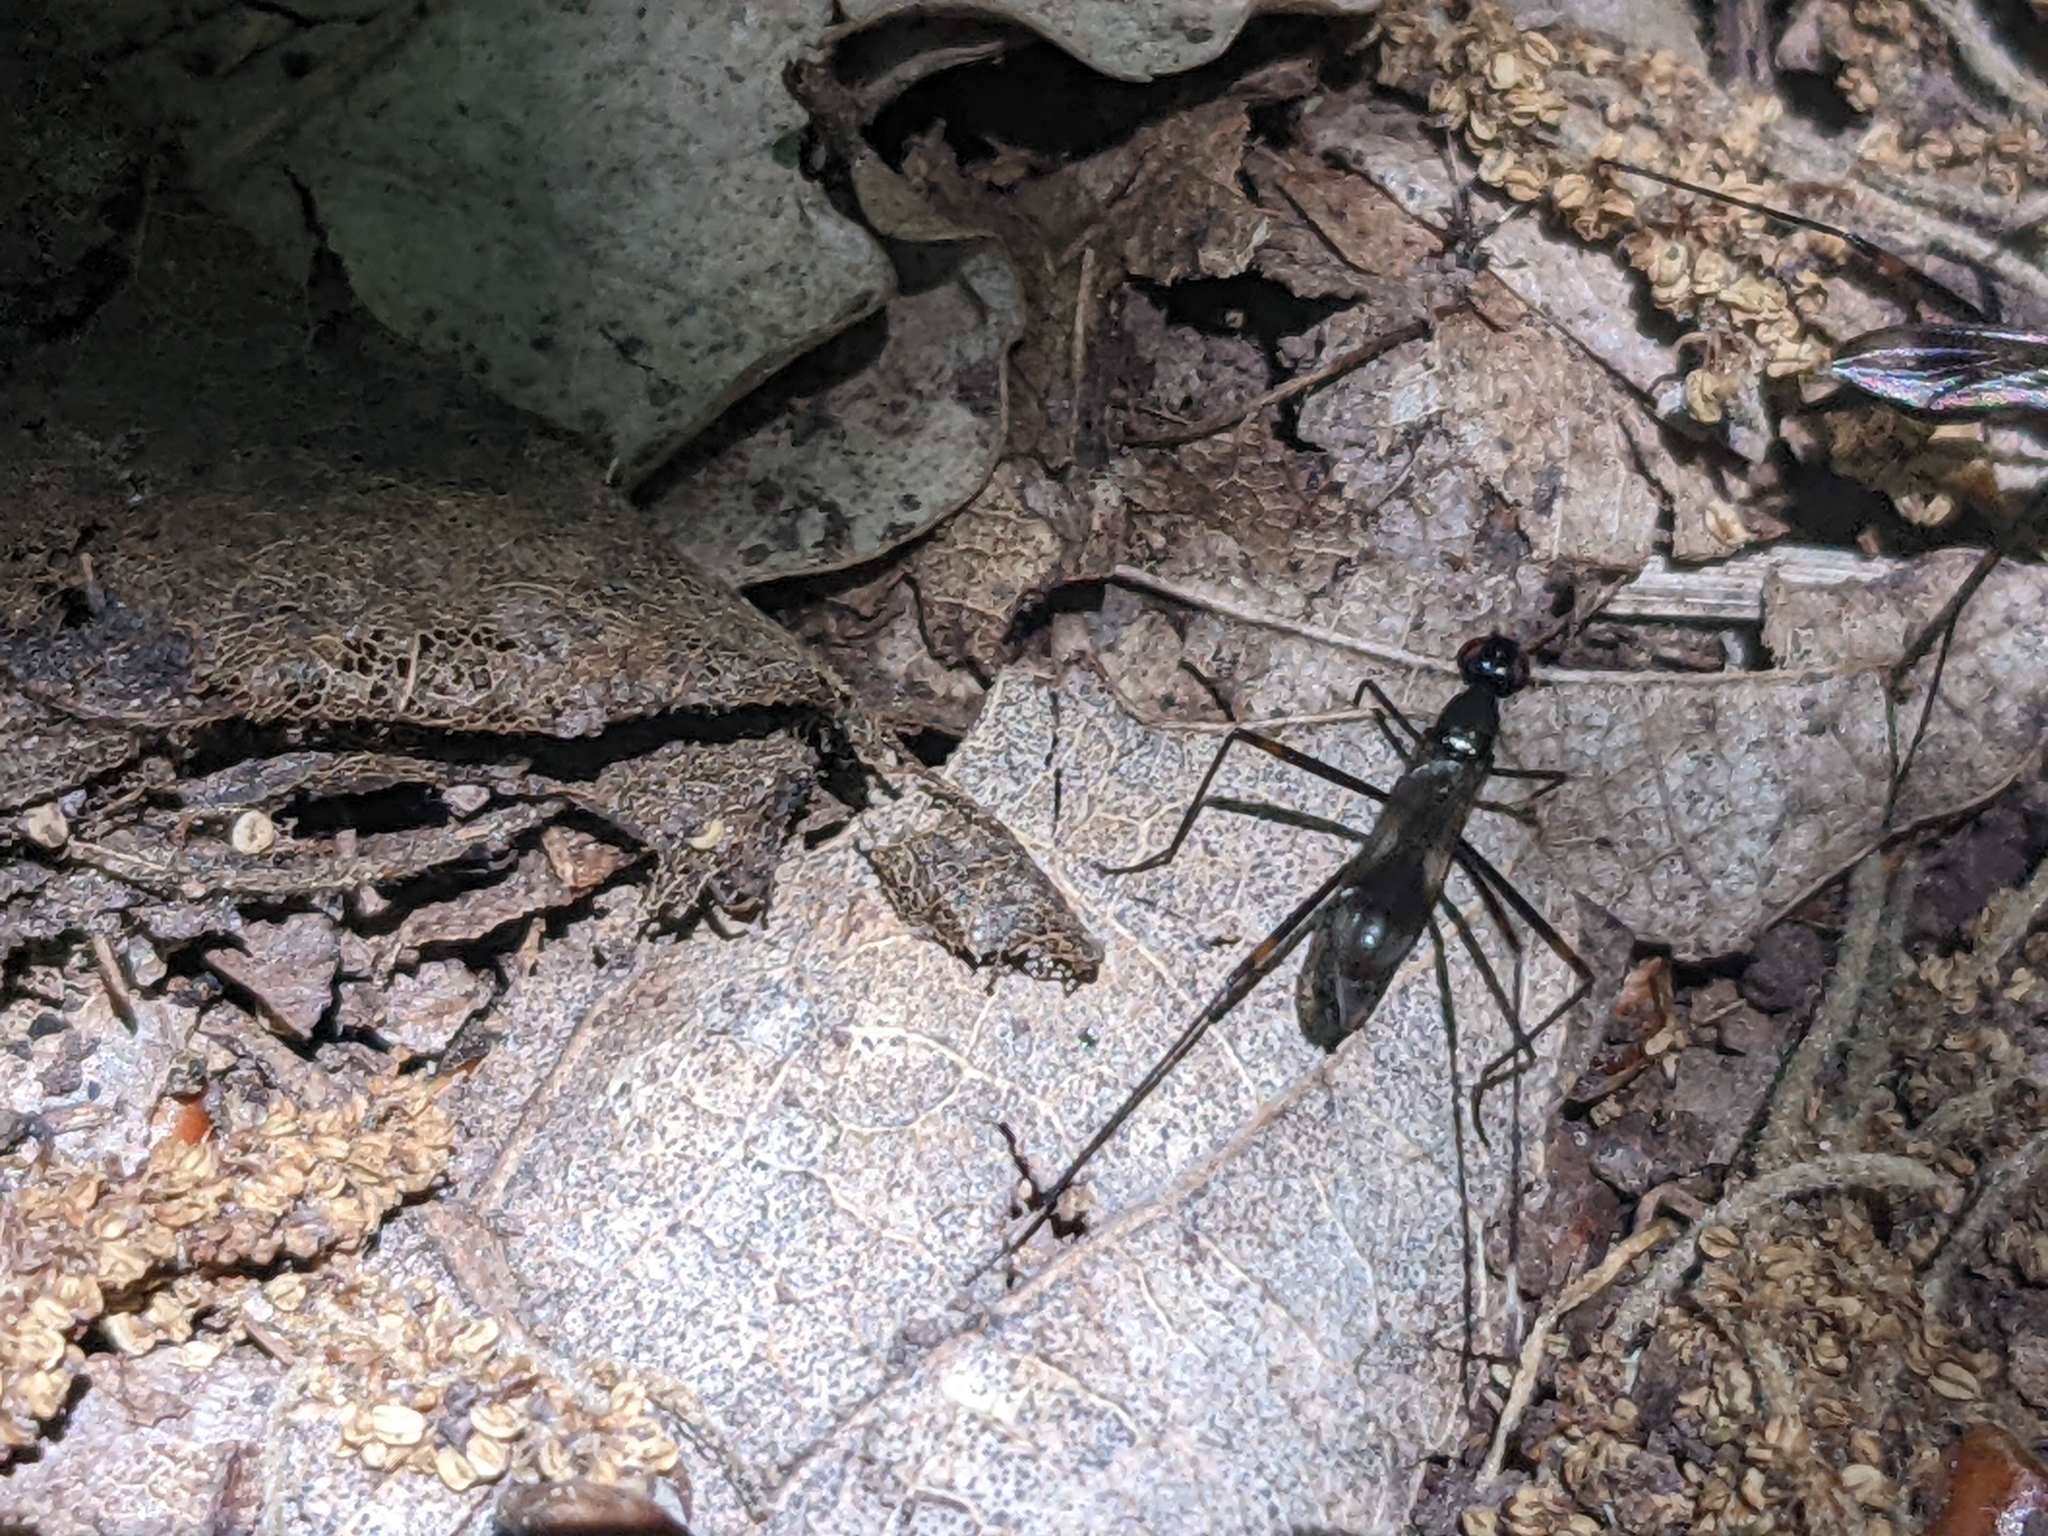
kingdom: Animalia
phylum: Arthropoda
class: Insecta
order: Diptera
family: Micropezidae
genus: Rainieria
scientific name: Rainieria calceata
